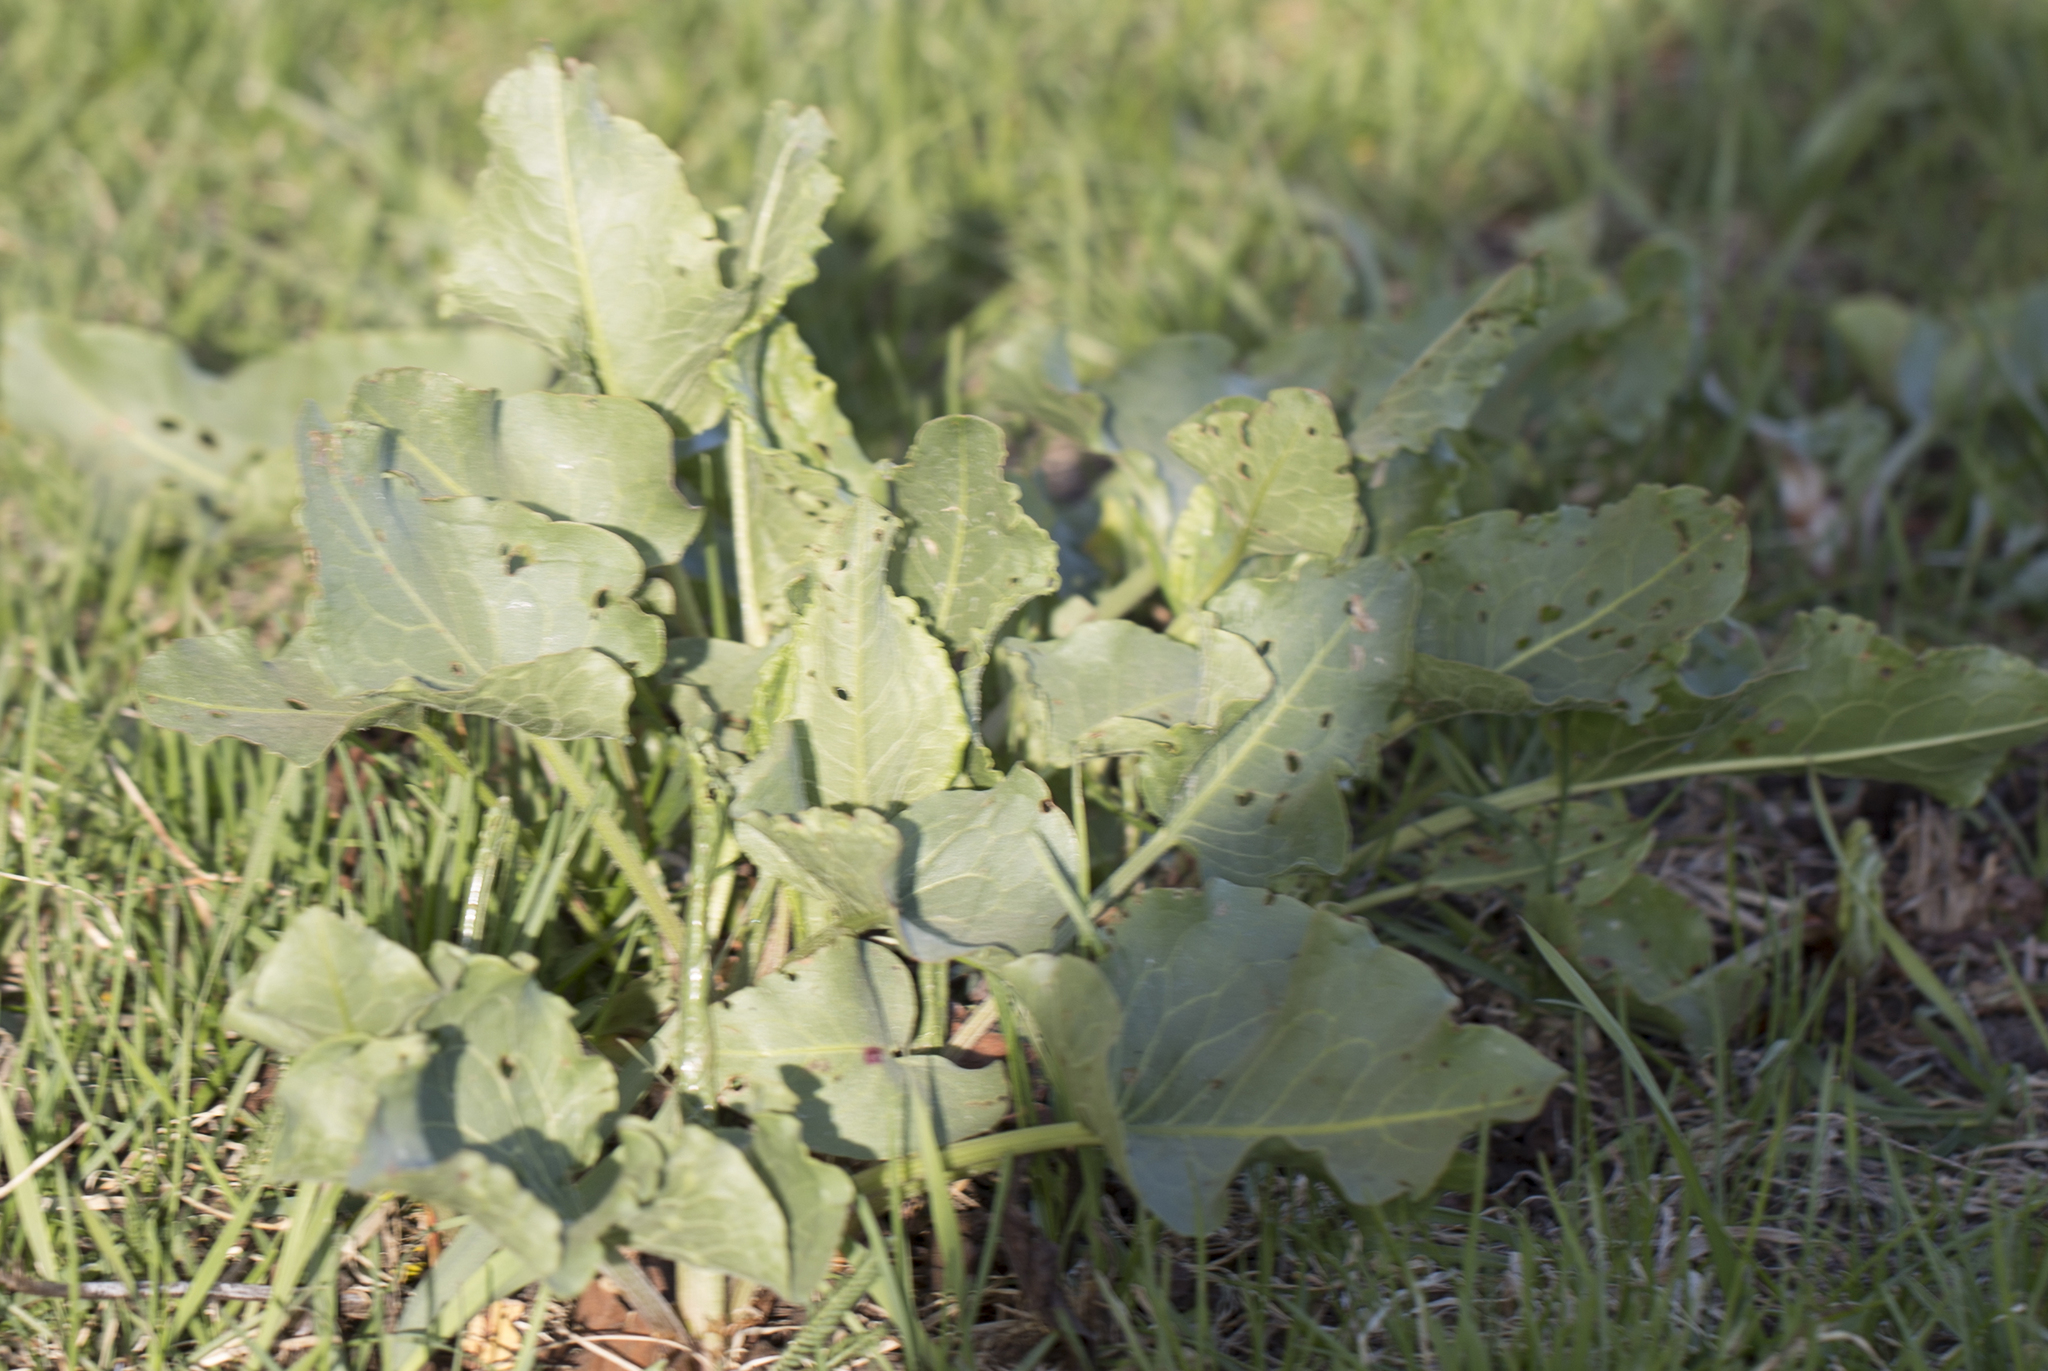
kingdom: Plantae
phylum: Tracheophyta
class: Magnoliopsida
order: Caryophyllales
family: Polygonaceae
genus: Rumex
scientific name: Rumex confertus
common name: Russian dock
